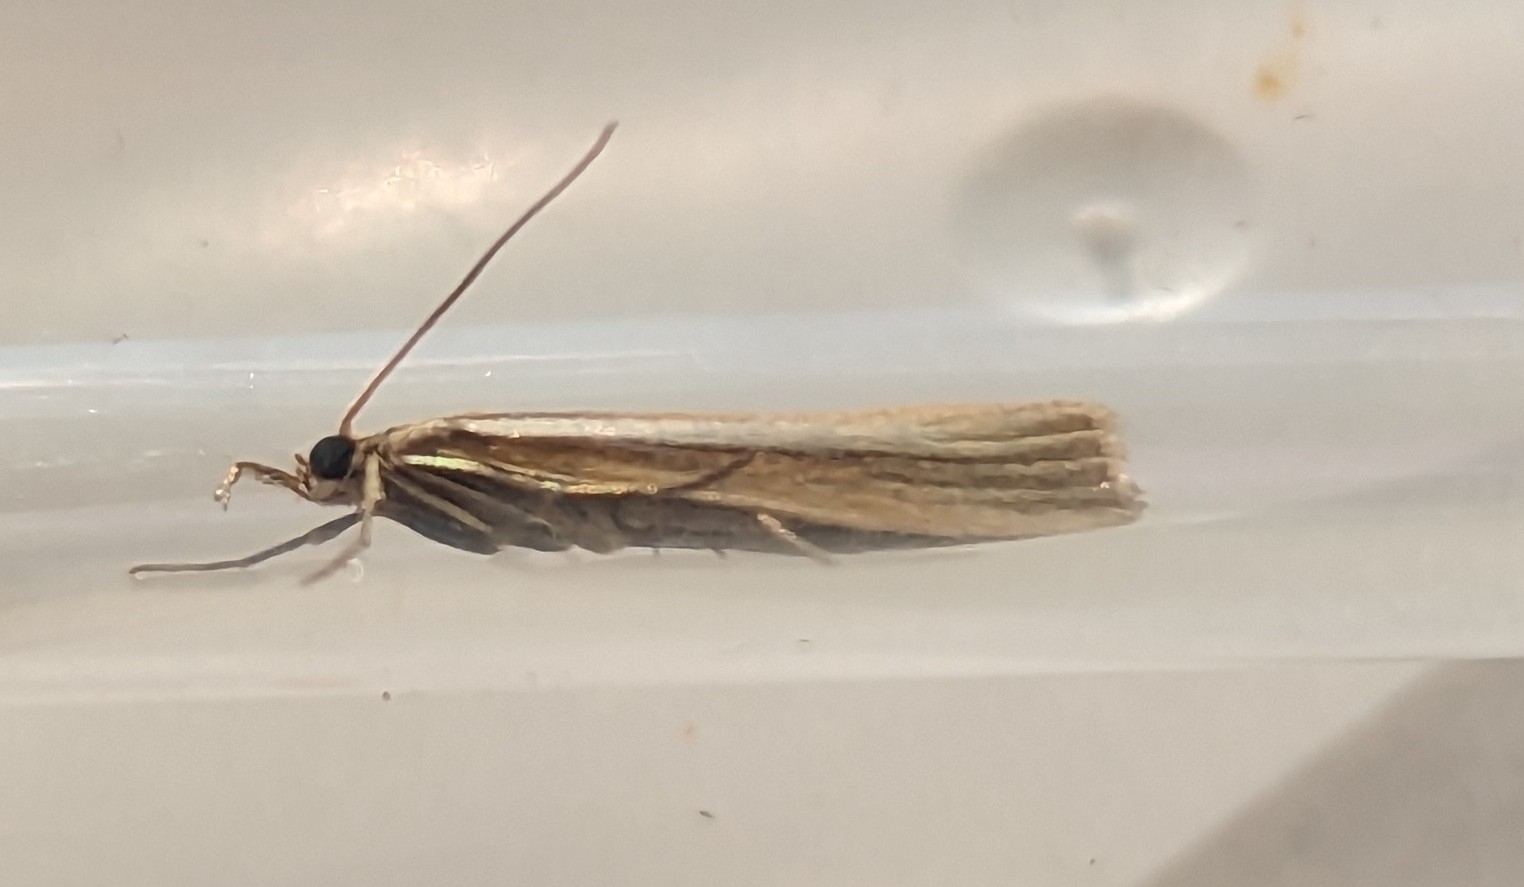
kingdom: Animalia
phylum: Arthropoda
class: Insecta
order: Lepidoptera
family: Crambidae
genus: Agriphila
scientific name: Agriphila tristellus
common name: Common grass-veneer
